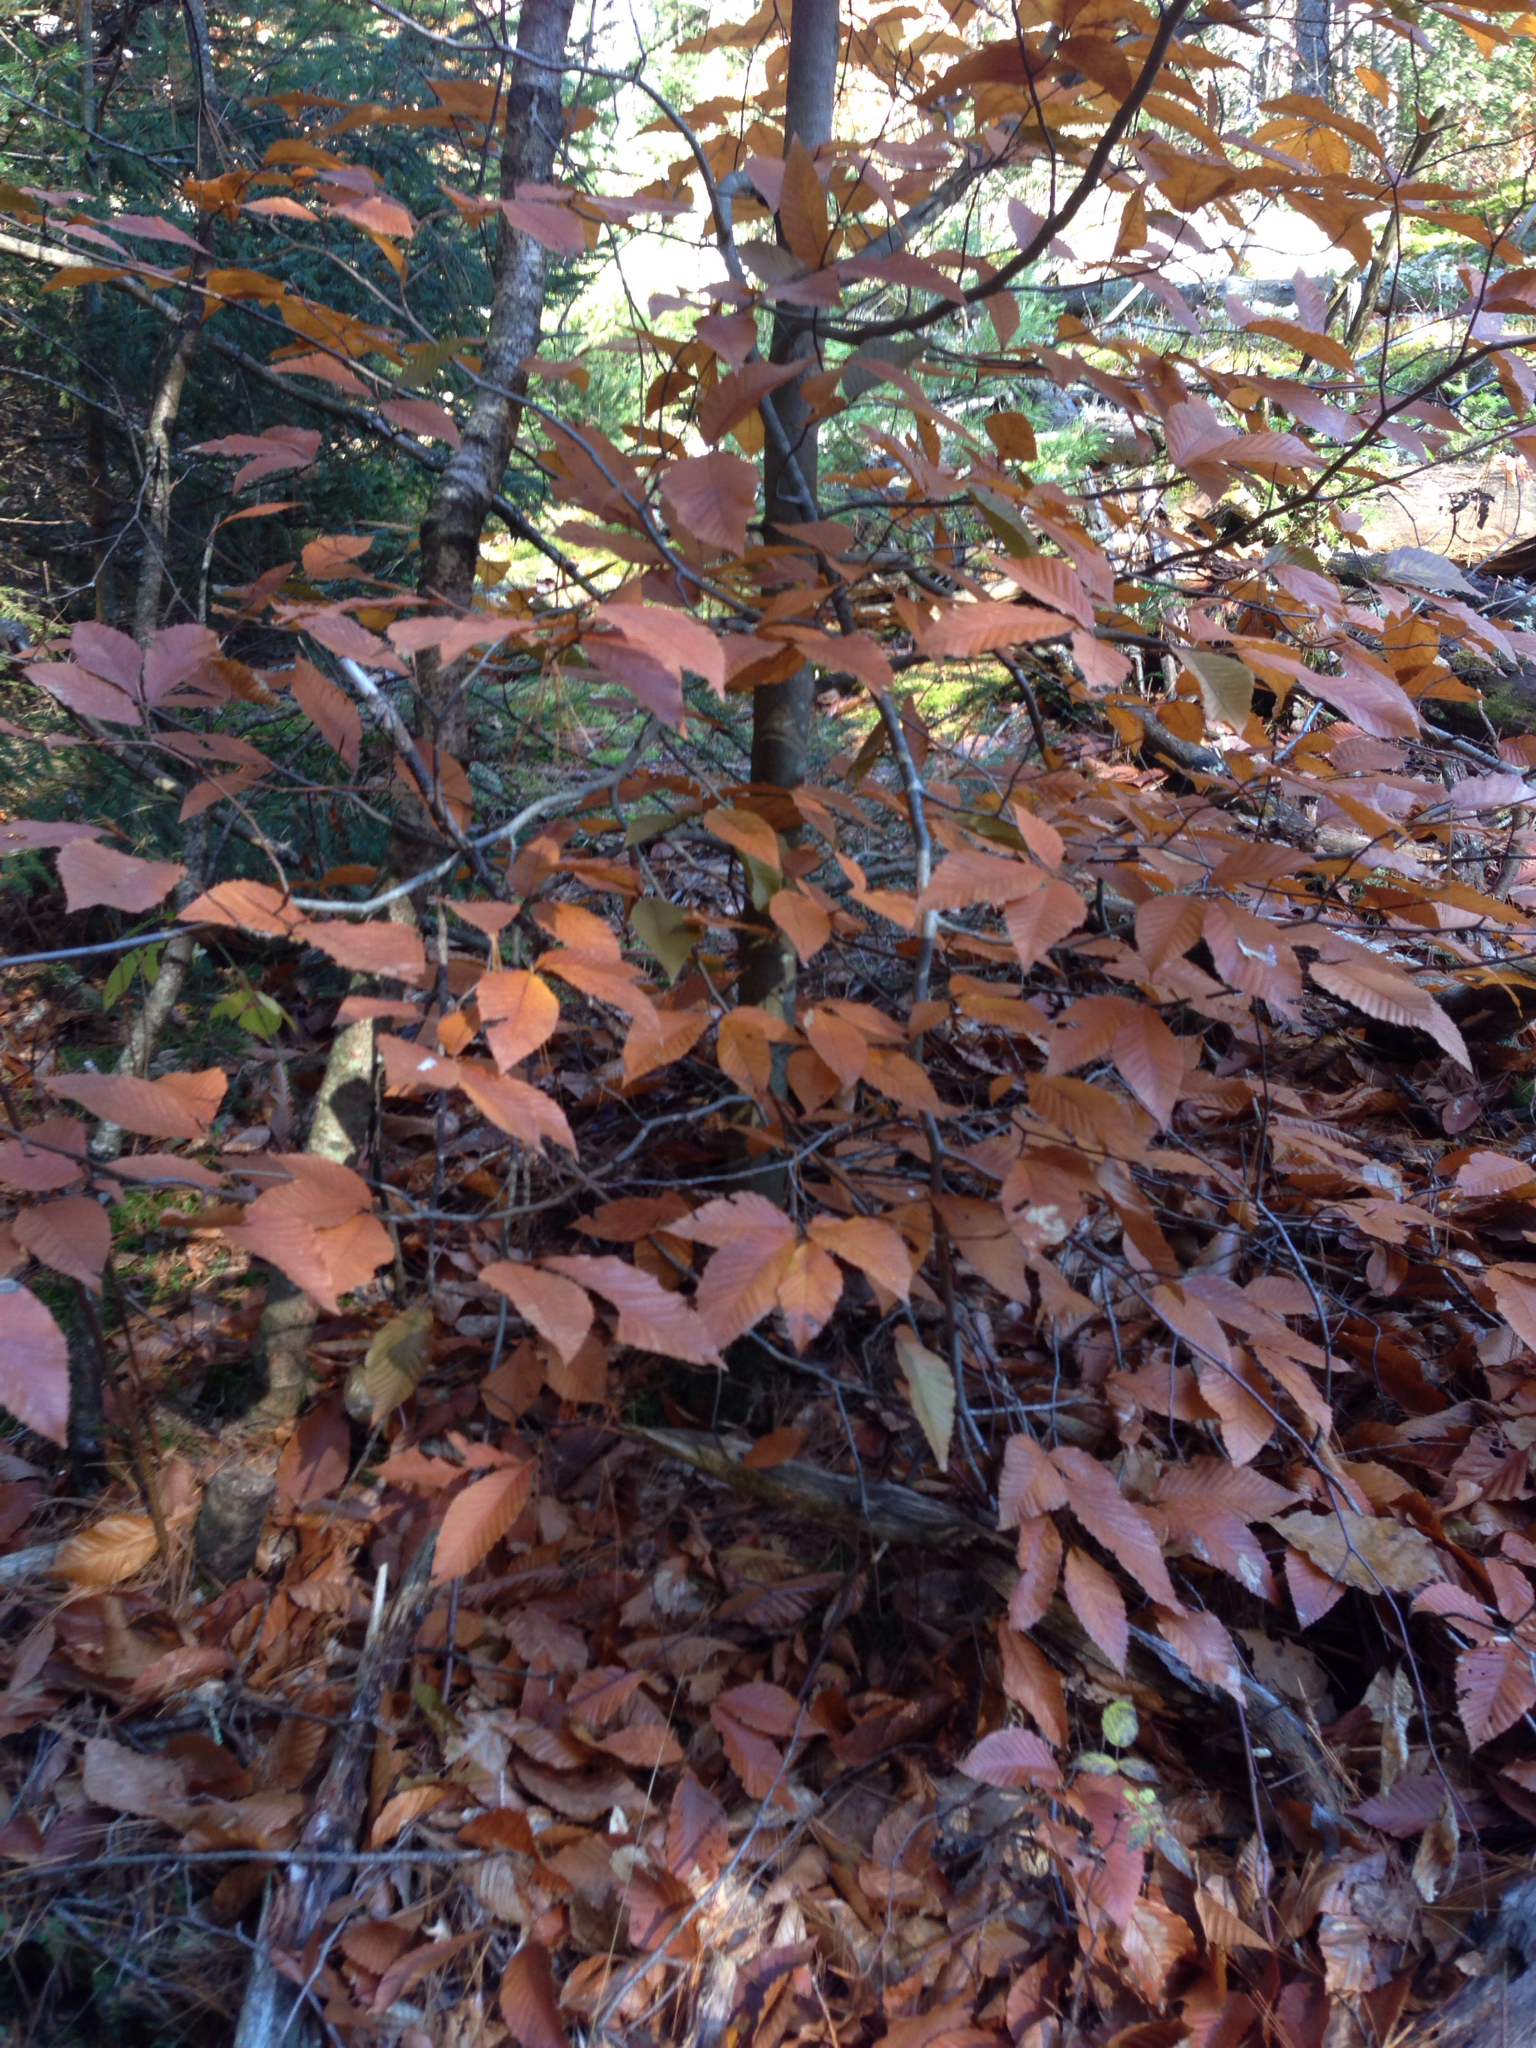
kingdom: Plantae
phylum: Tracheophyta
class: Magnoliopsida
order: Fagales
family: Fagaceae
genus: Fagus
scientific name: Fagus grandifolia
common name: American beech
